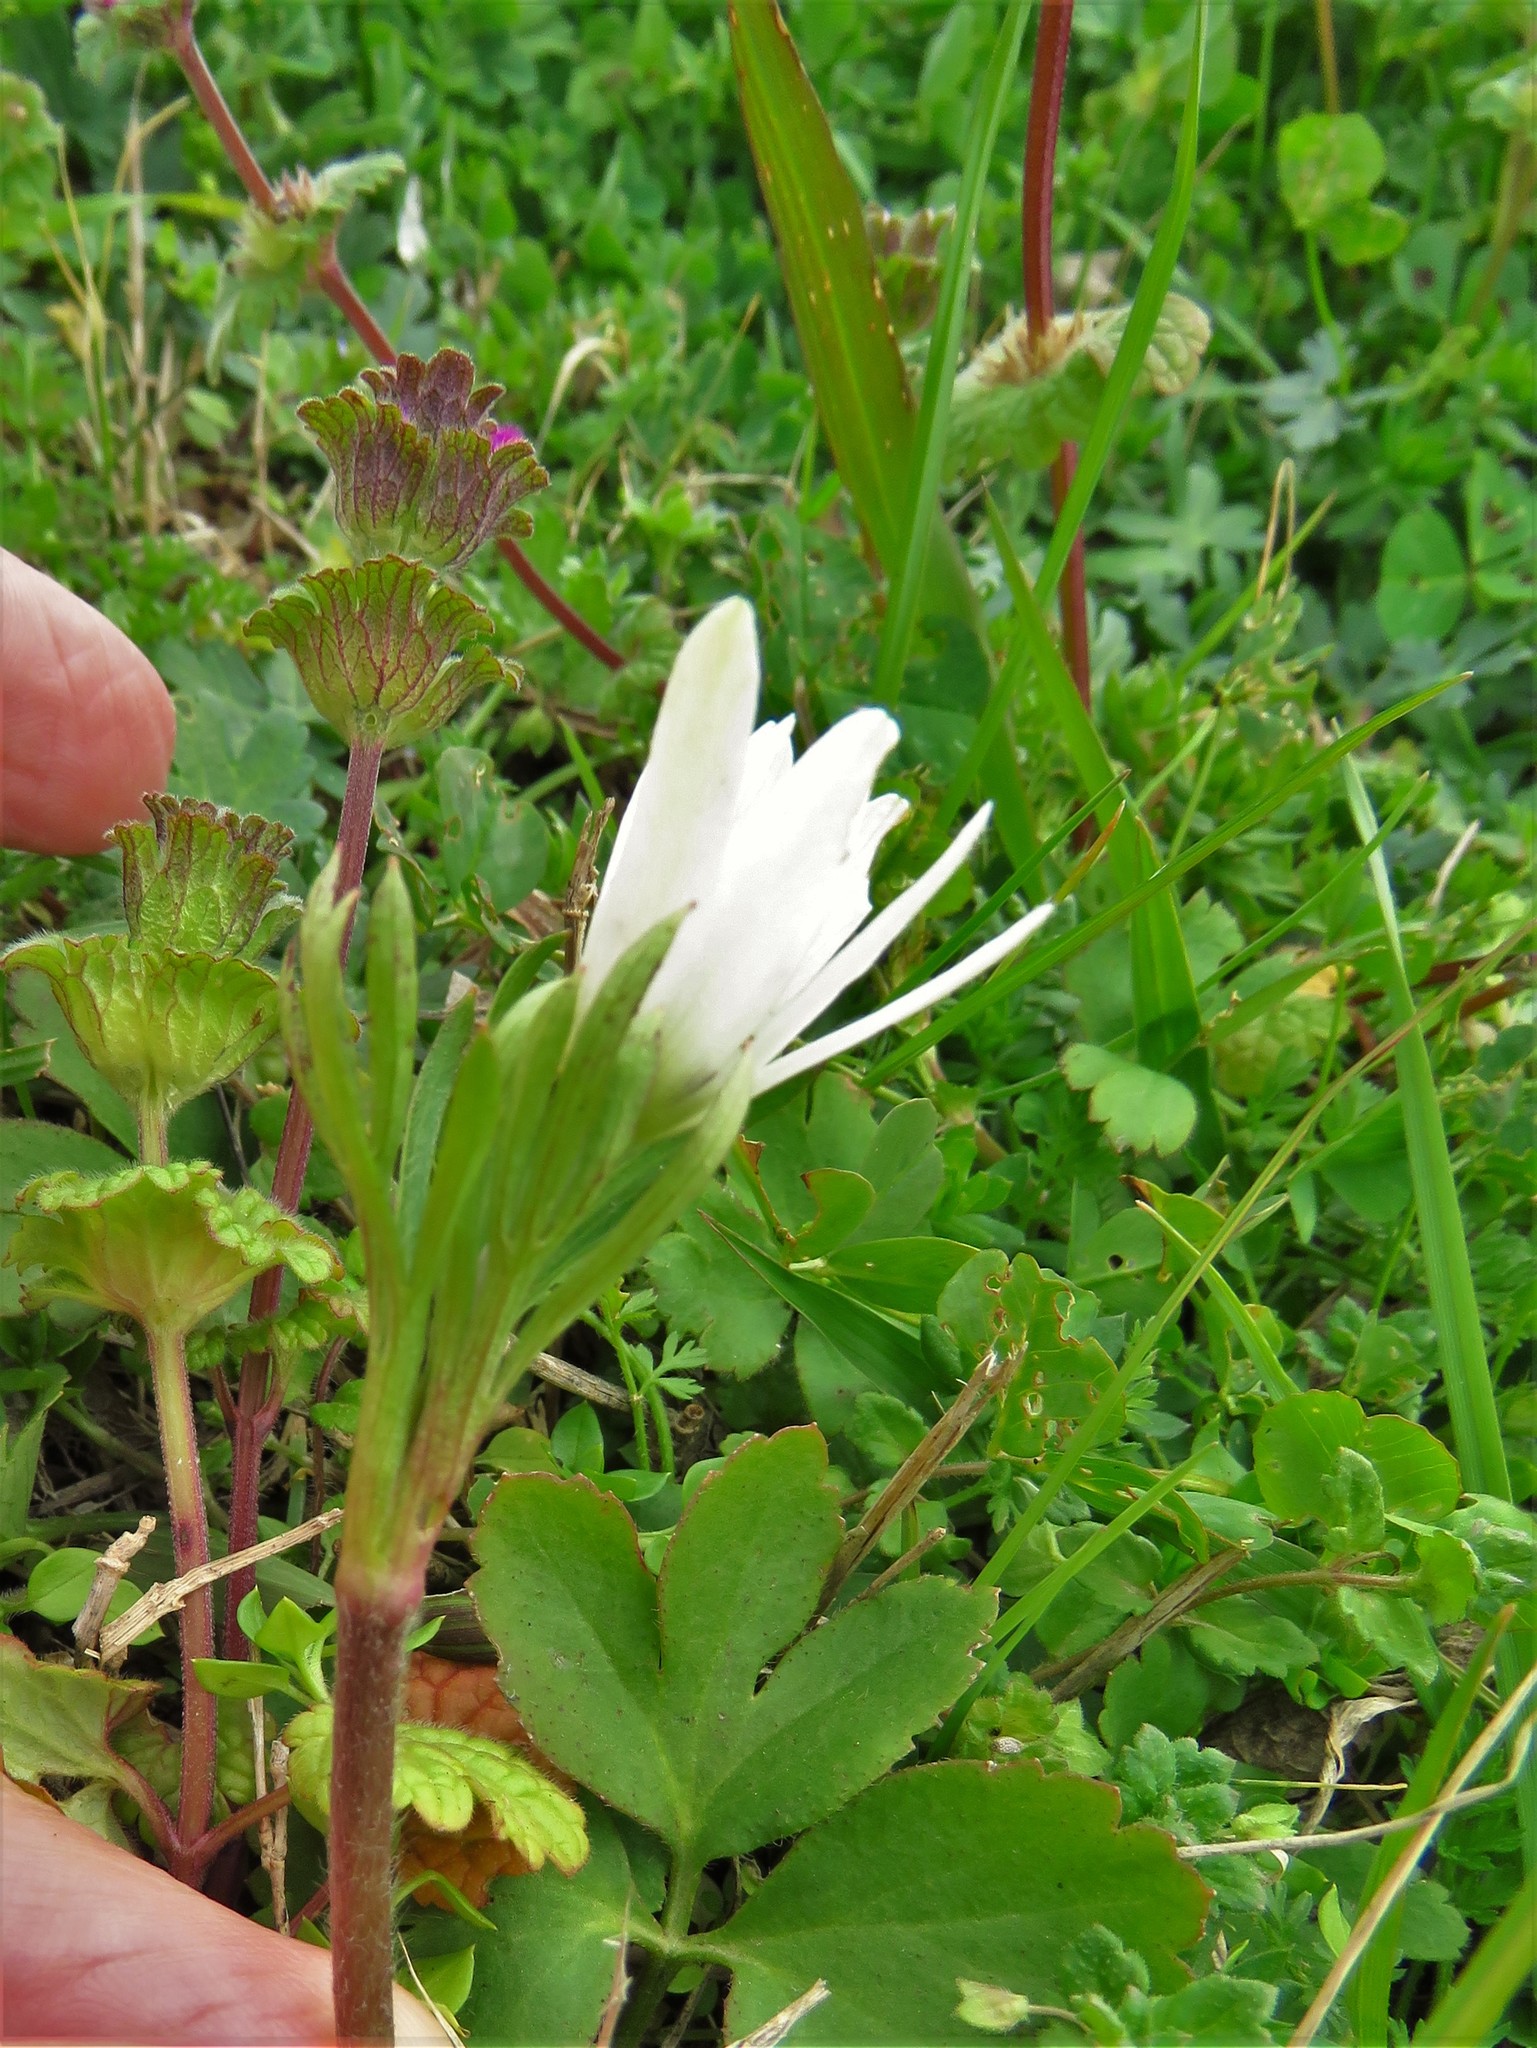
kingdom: Plantae
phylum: Tracheophyta
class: Magnoliopsida
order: Ranunculales
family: Ranunculaceae
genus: Anemone
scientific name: Anemone berlandieri
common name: Ten-petal anemone
